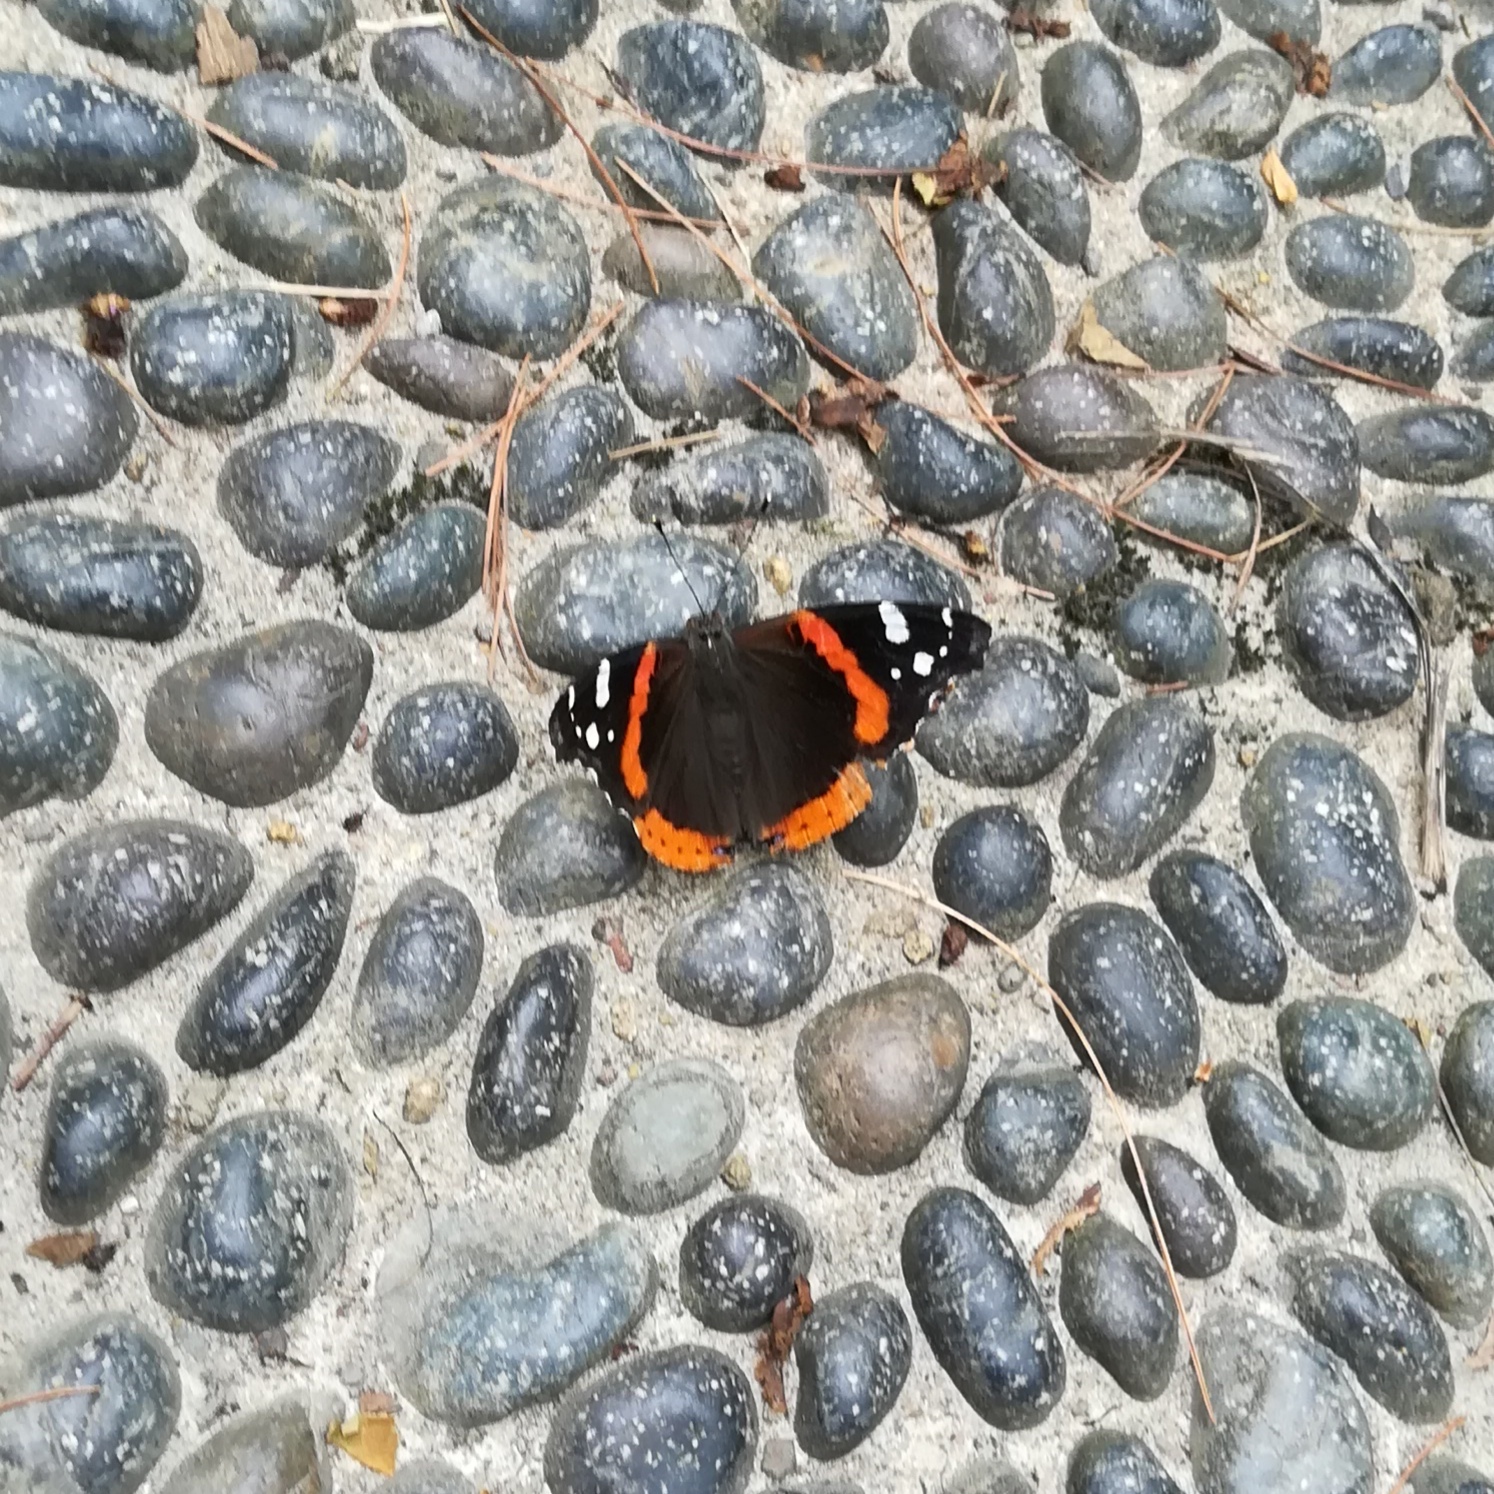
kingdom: Animalia
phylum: Arthropoda
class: Insecta
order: Lepidoptera
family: Nymphalidae
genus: Vanessa
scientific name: Vanessa atalanta
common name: Red admiral
